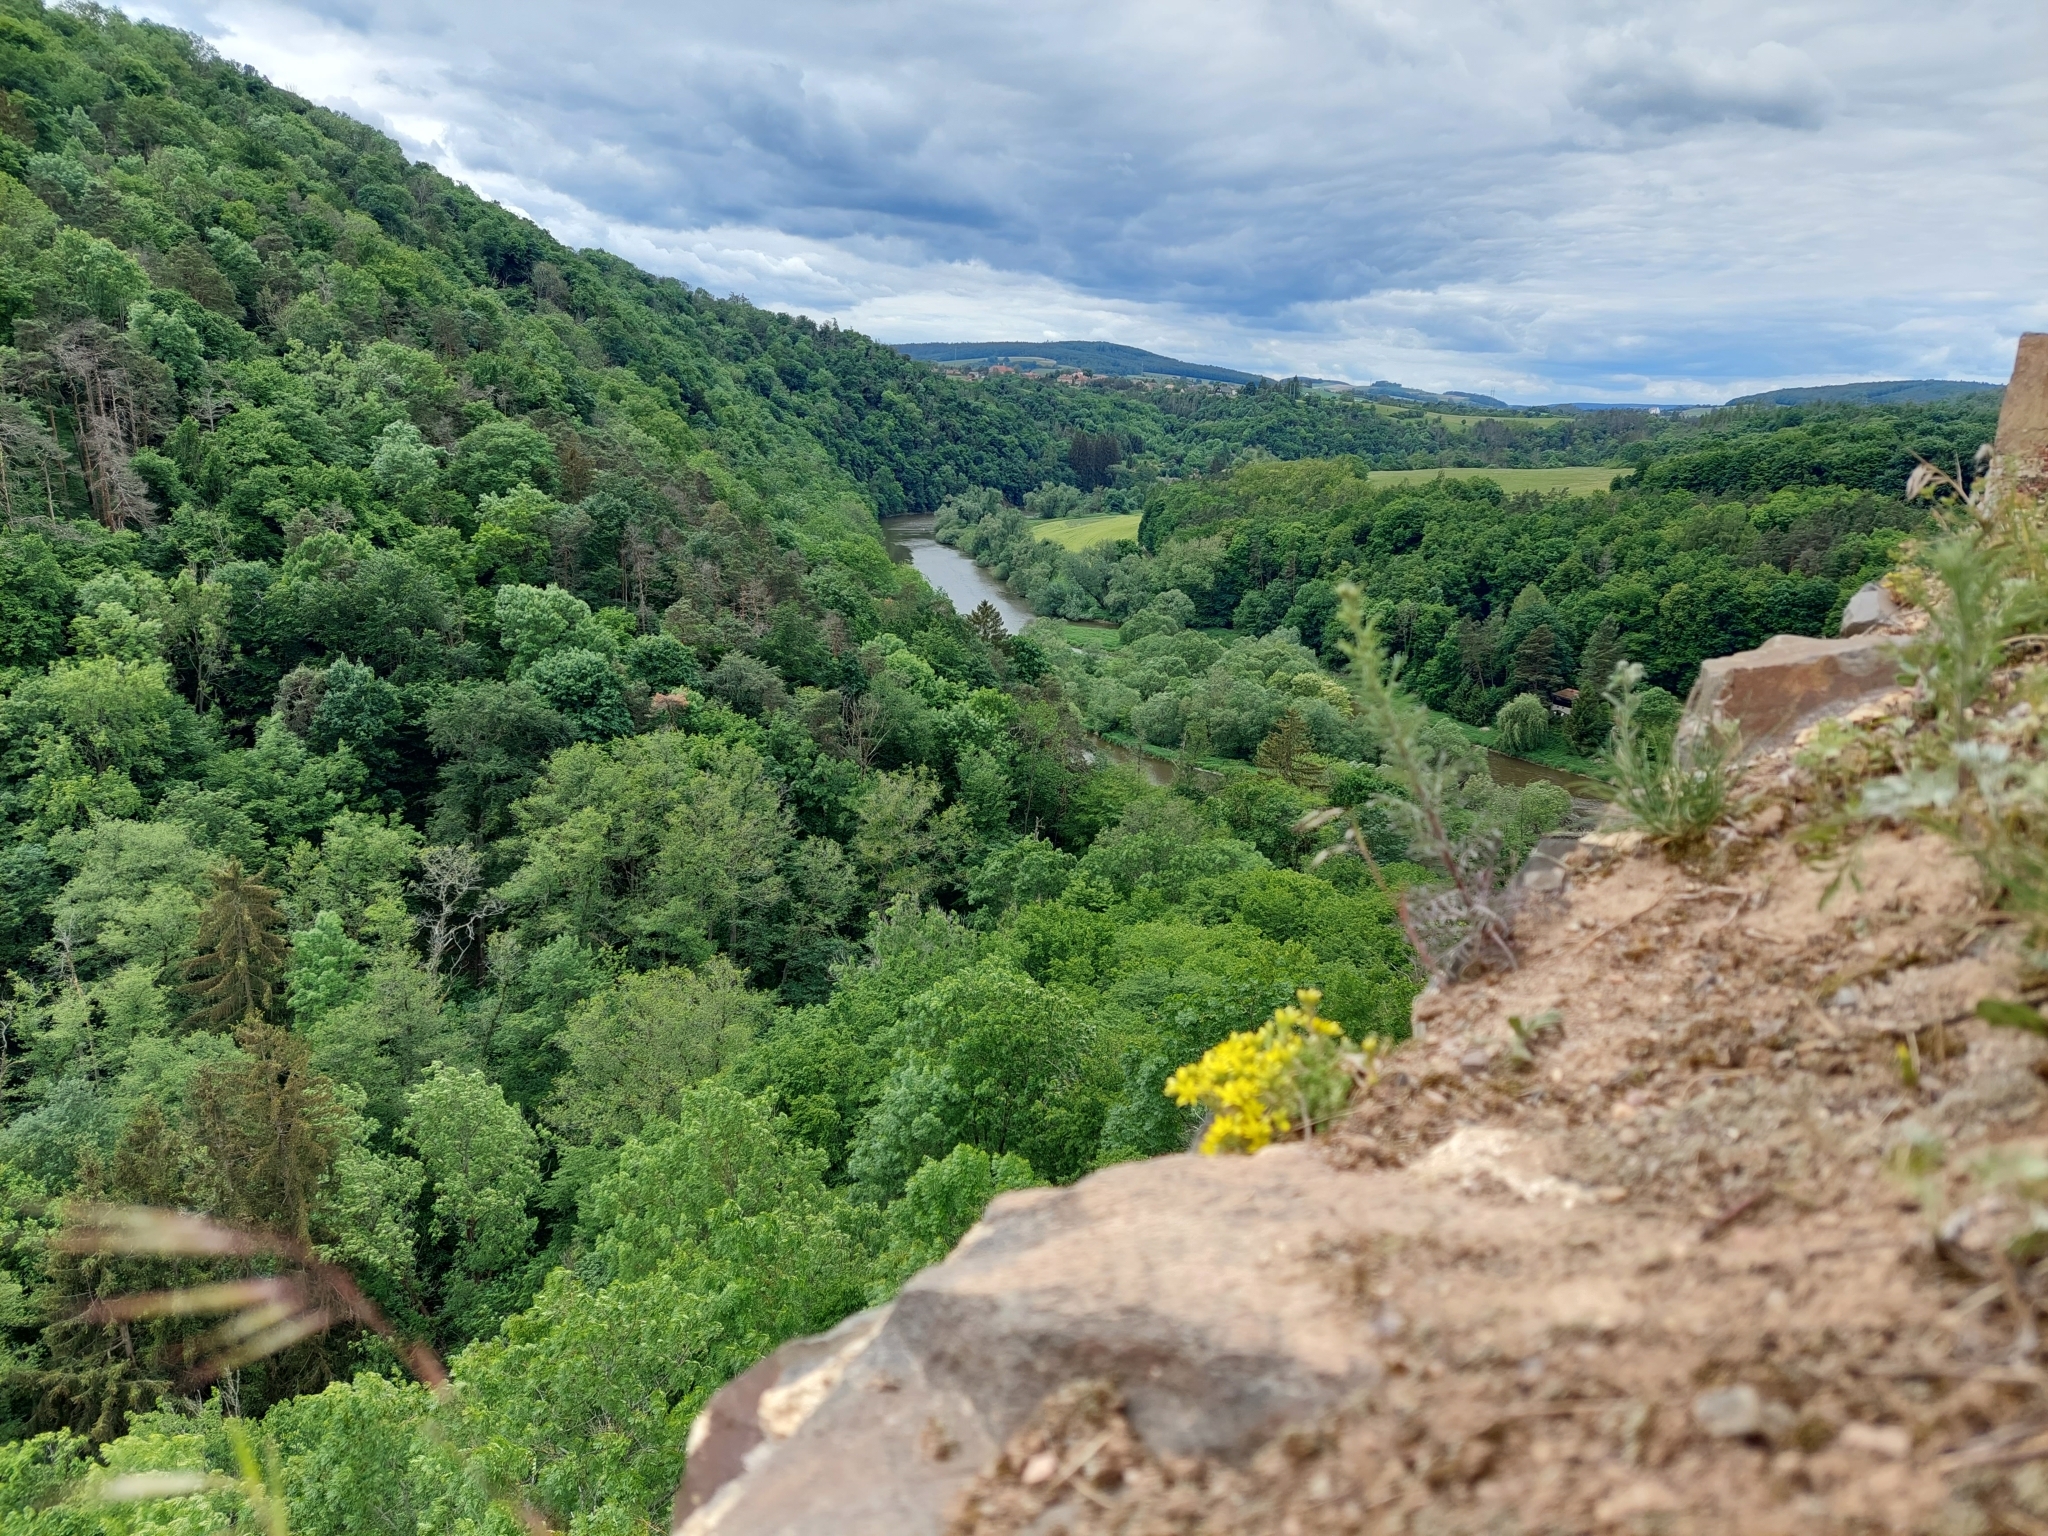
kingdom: Plantae
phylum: Tracheophyta
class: Magnoliopsida
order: Saxifragales
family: Crassulaceae
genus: Sedum
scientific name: Sedum acre
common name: Biting stonecrop
